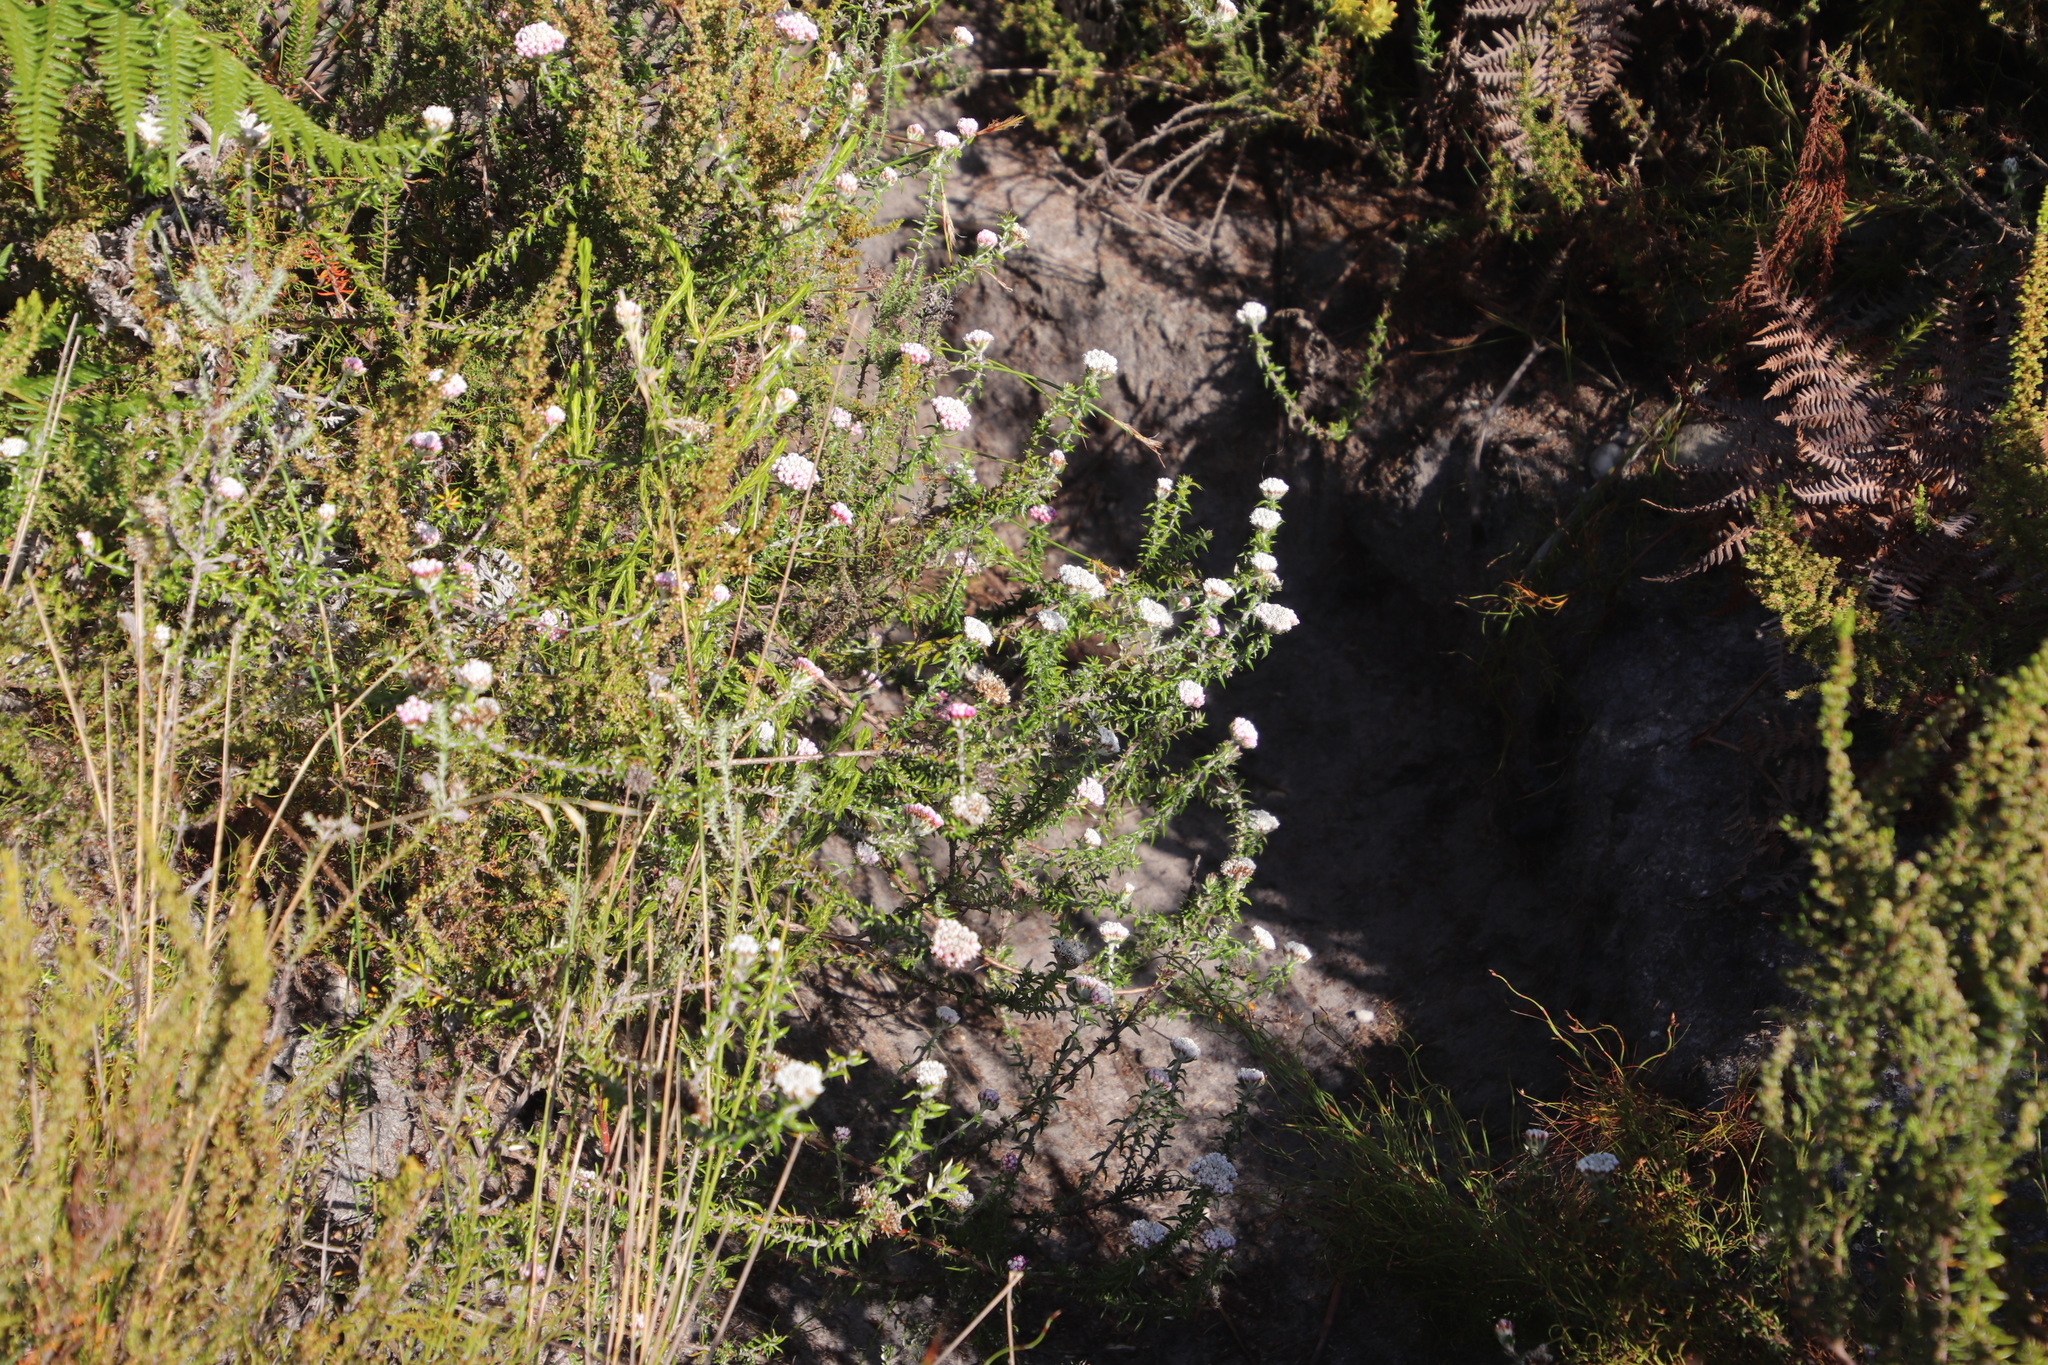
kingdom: Plantae
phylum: Tracheophyta
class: Magnoliopsida
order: Asterales
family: Asteraceae
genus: Metalasia
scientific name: Metalasia divergens
